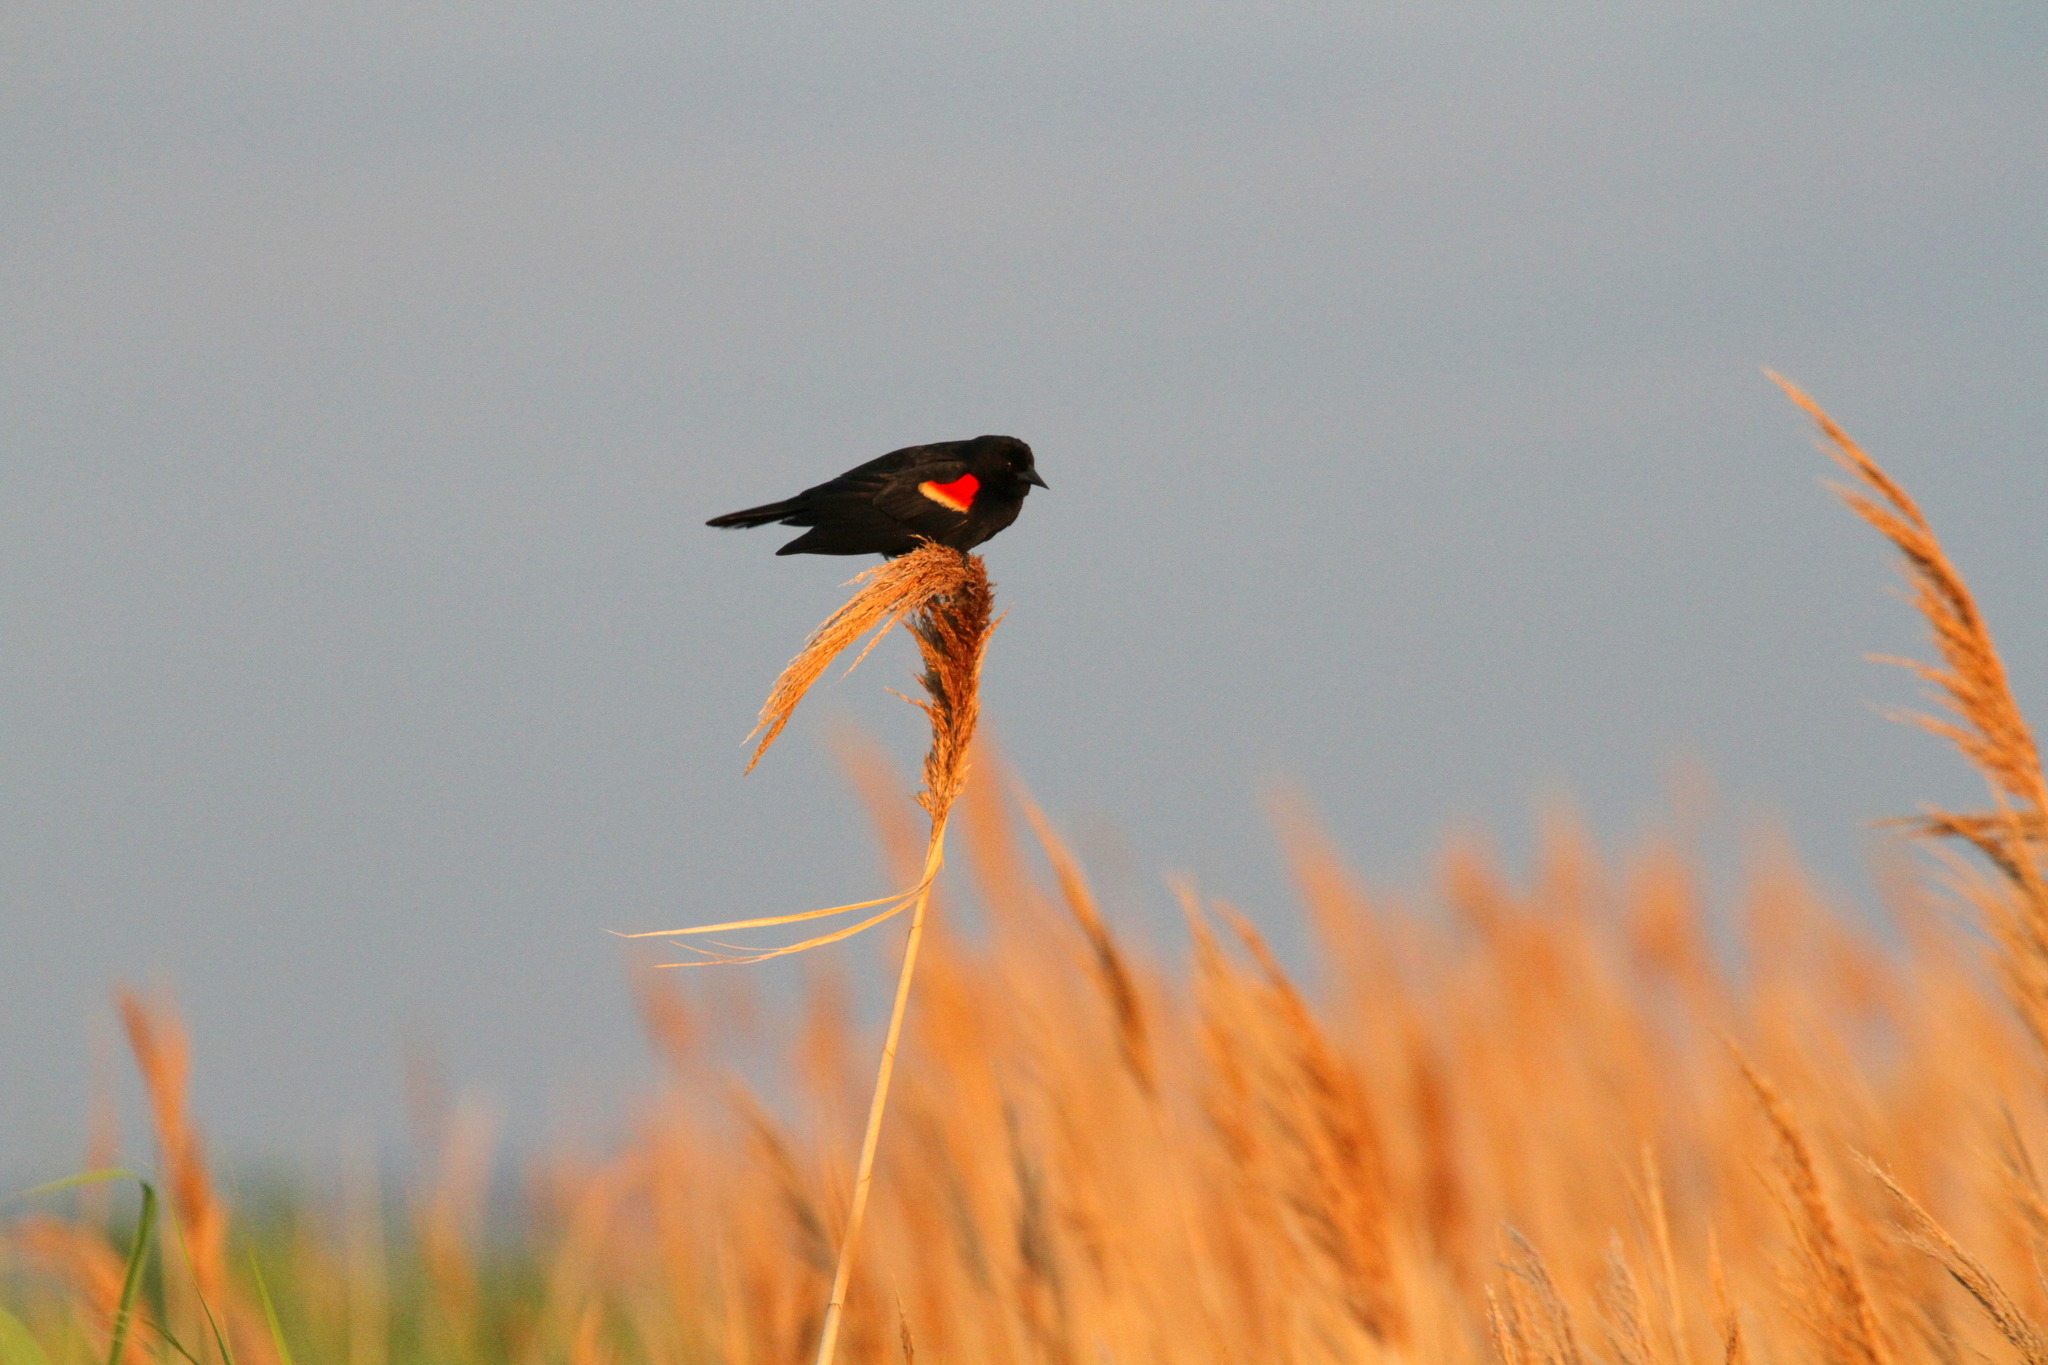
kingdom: Animalia
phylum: Chordata
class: Aves
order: Passeriformes
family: Icteridae
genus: Agelaius
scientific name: Agelaius phoeniceus
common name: Red-winged blackbird
